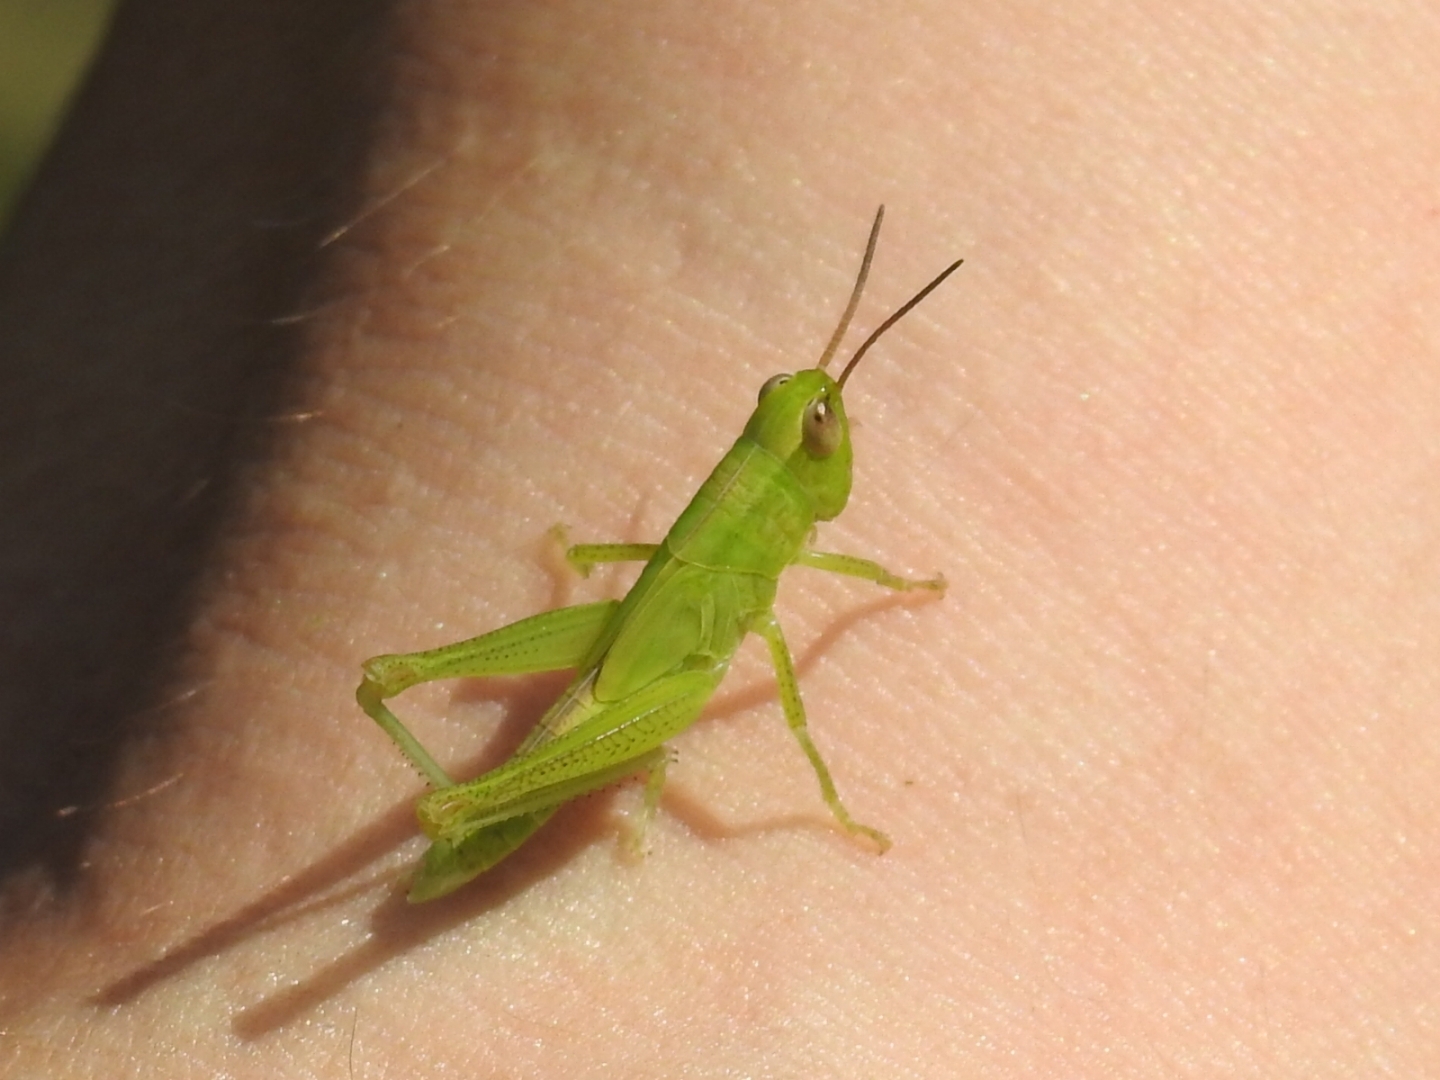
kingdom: Animalia
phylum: Arthropoda
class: Insecta
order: Orthoptera
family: Acrididae
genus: Mecostethus
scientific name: Mecostethus parapleurus
